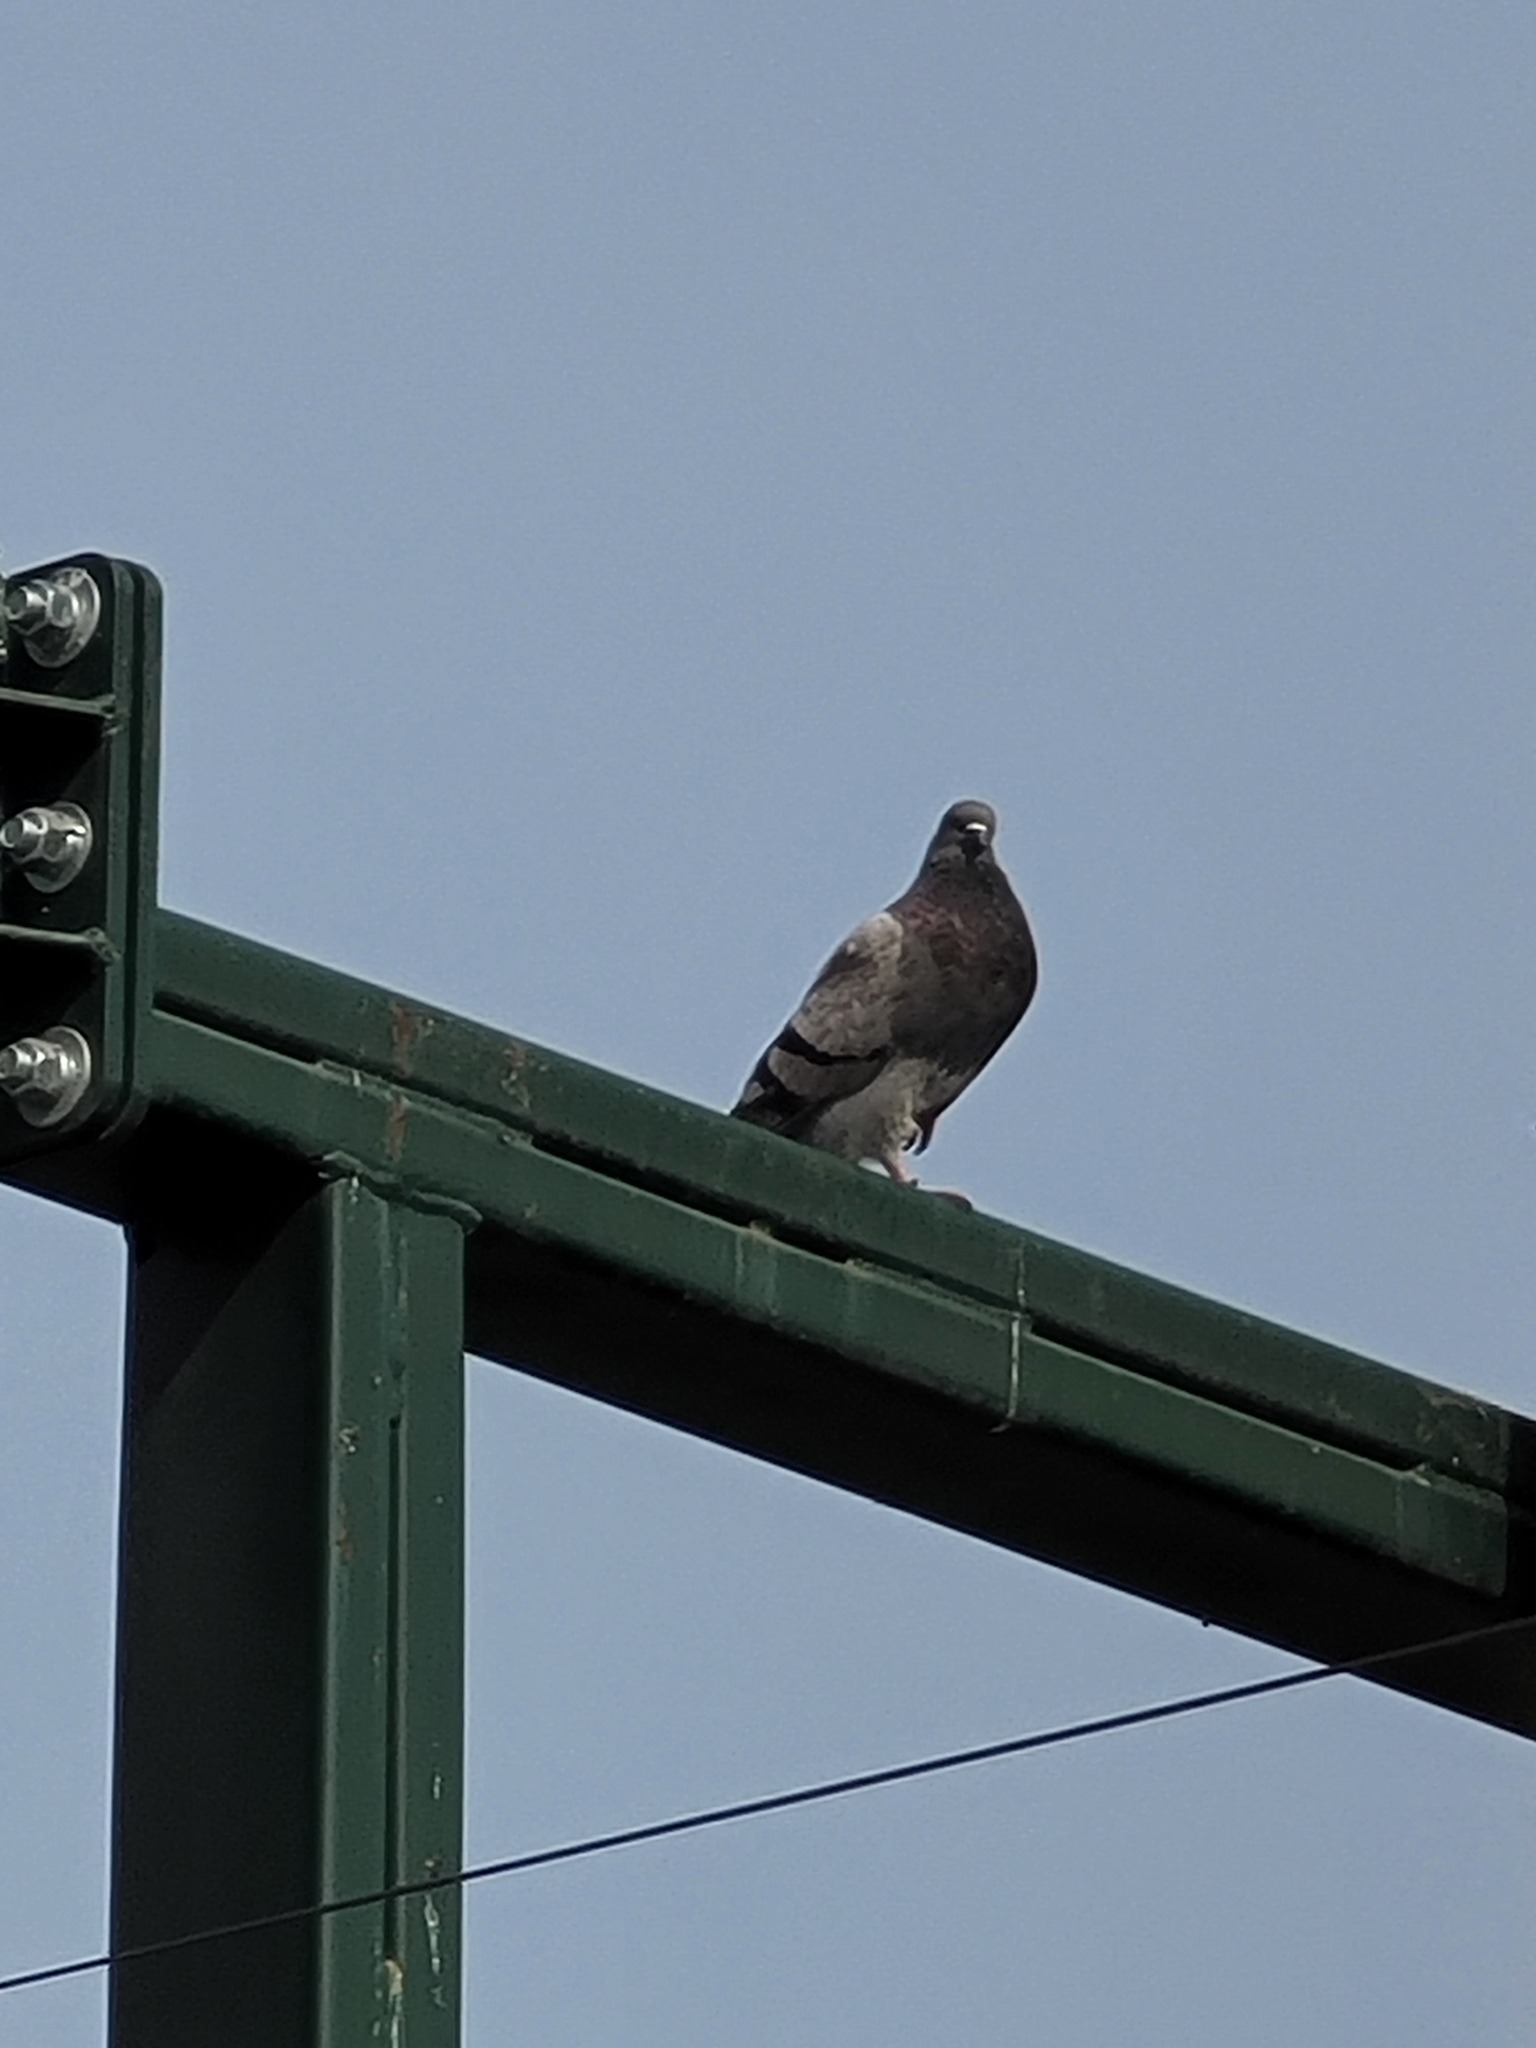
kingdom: Animalia
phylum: Chordata
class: Aves
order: Columbiformes
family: Columbidae
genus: Columba
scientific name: Columba livia
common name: Rock pigeon
